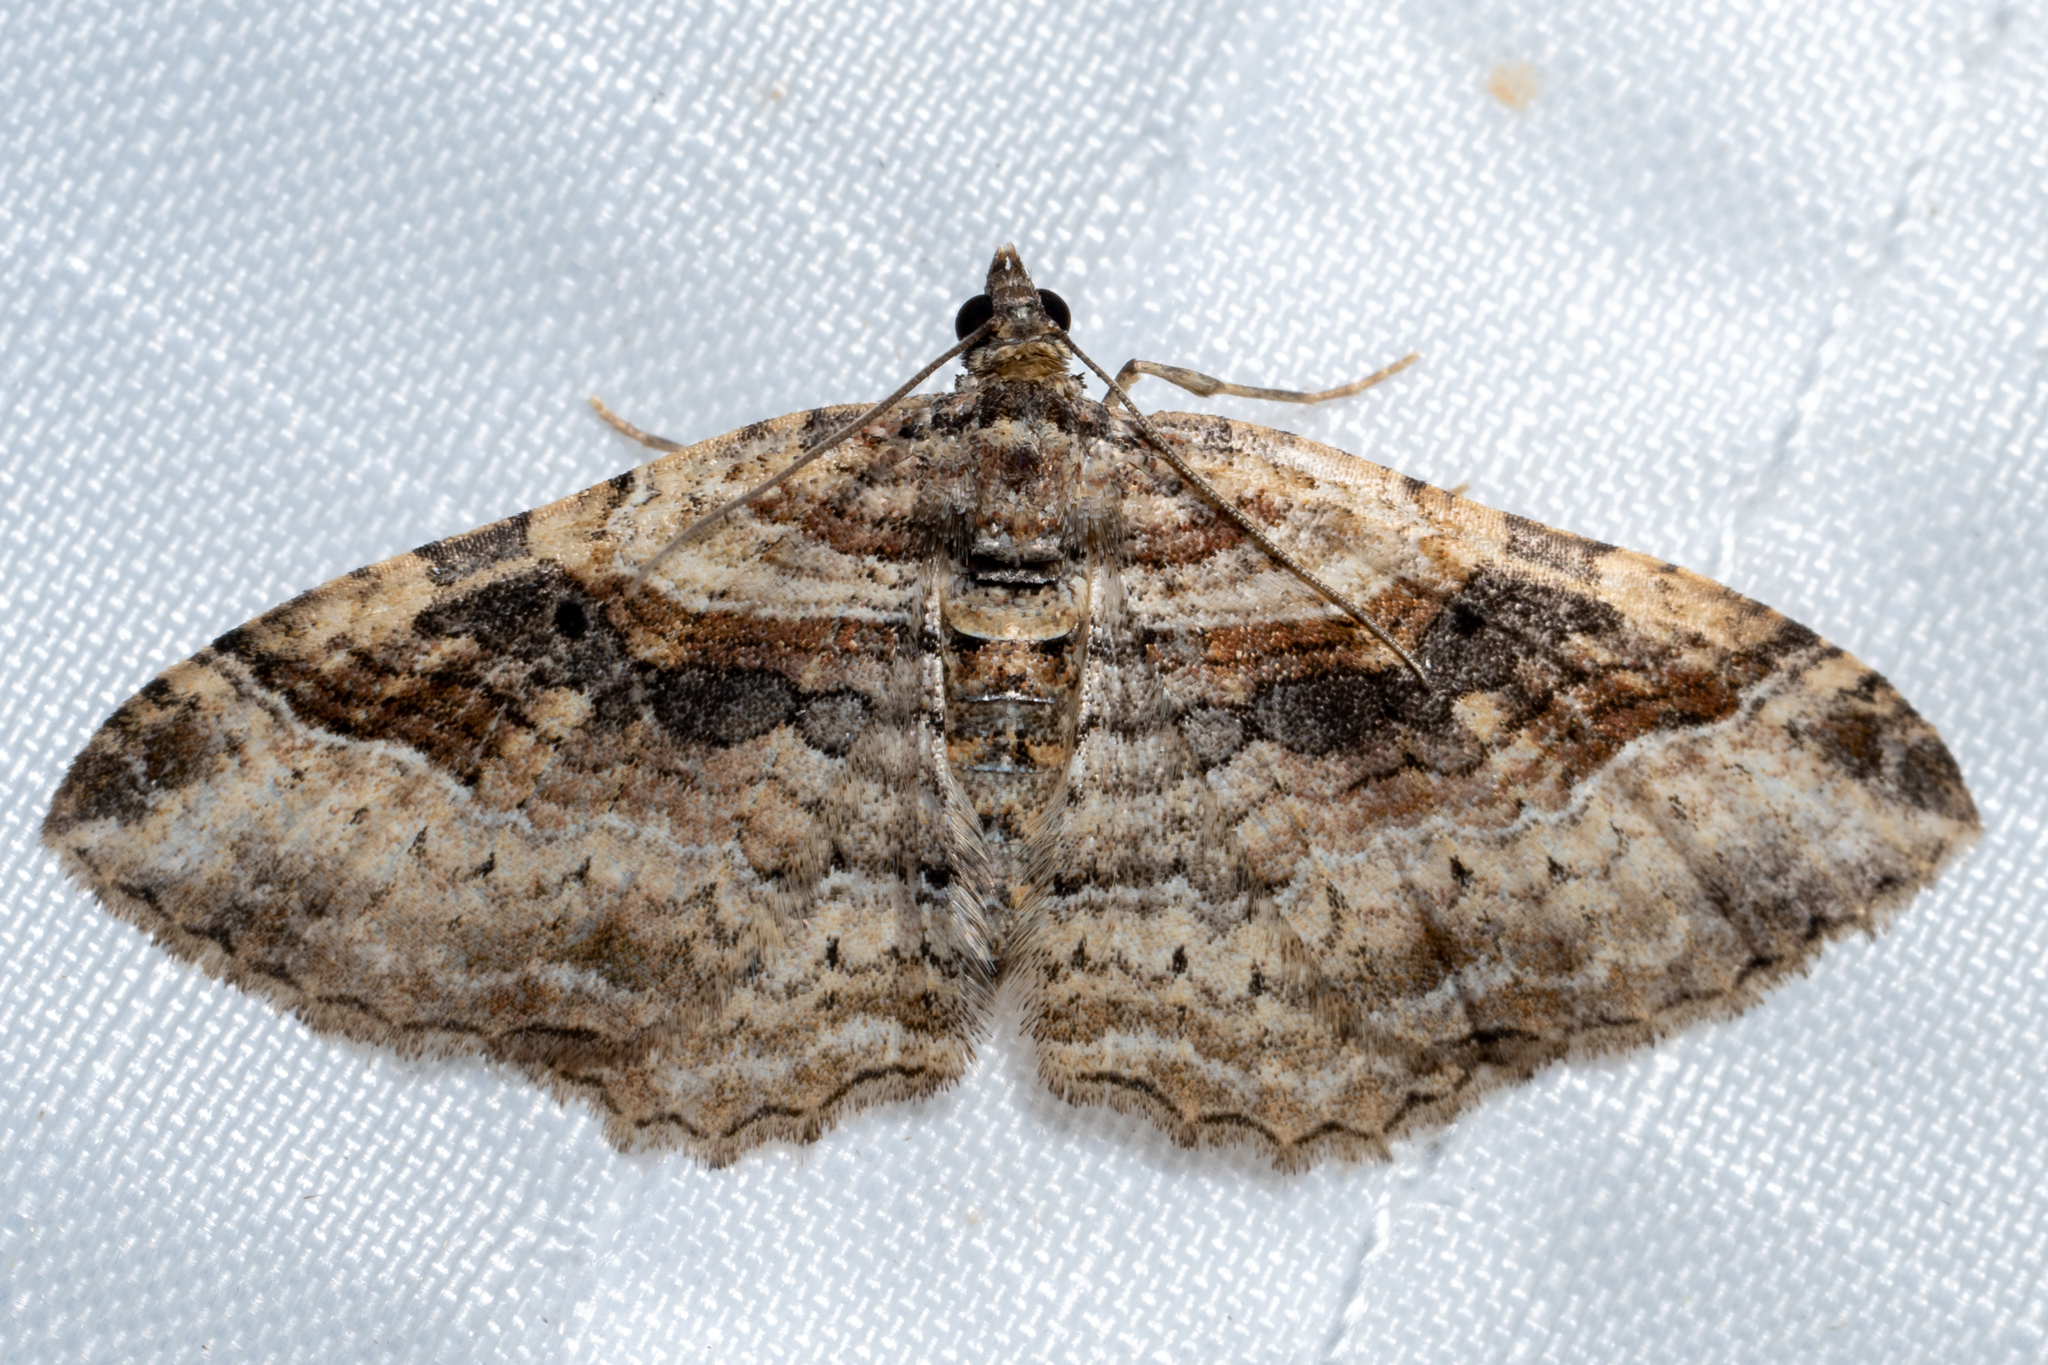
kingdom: Animalia
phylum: Arthropoda
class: Insecta
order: Lepidoptera
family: Geometridae
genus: Costaconvexa
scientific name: Costaconvexa centrostrigaria
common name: Bent-line carpet
